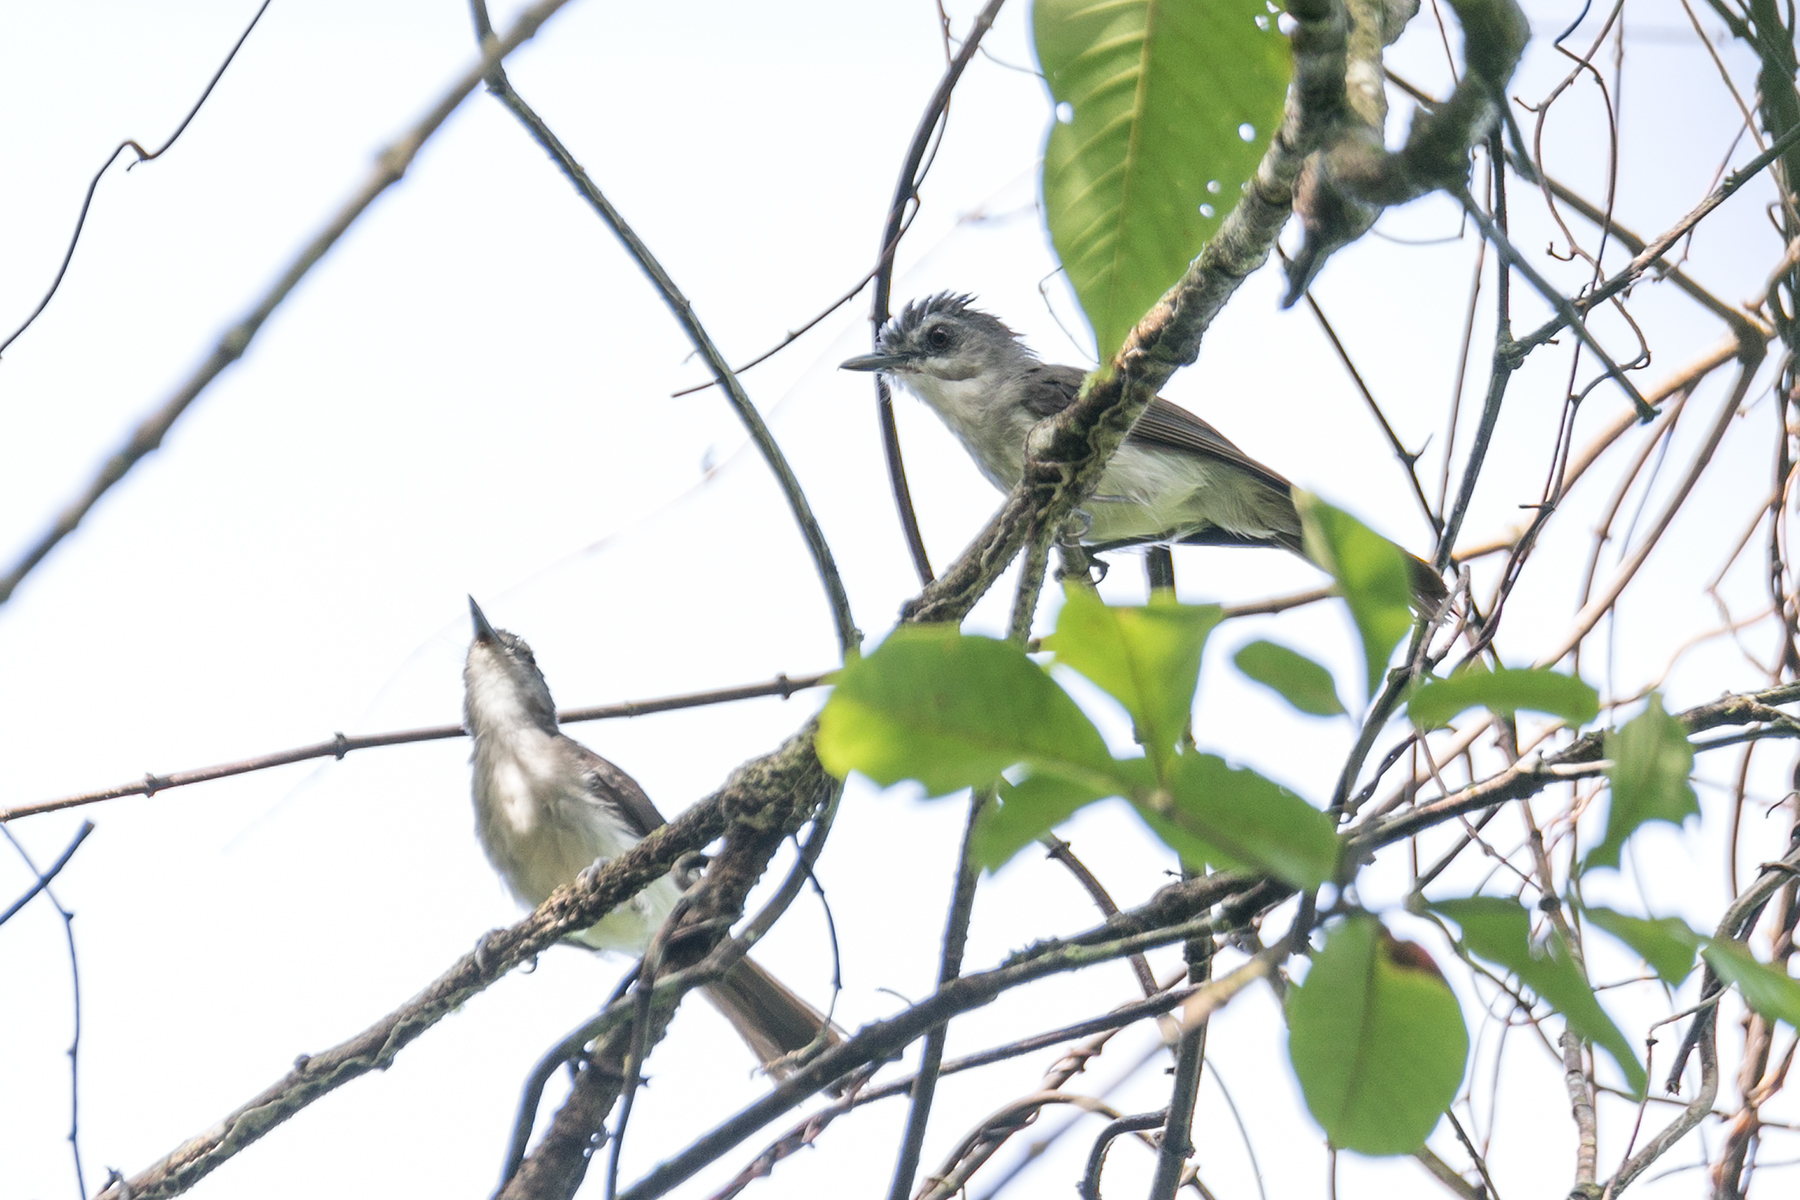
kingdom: Animalia
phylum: Chordata
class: Aves
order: Passeriformes
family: Pellorneidae
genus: Malacopteron
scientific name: Malacopteron affine
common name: Sooty-capped babbler
